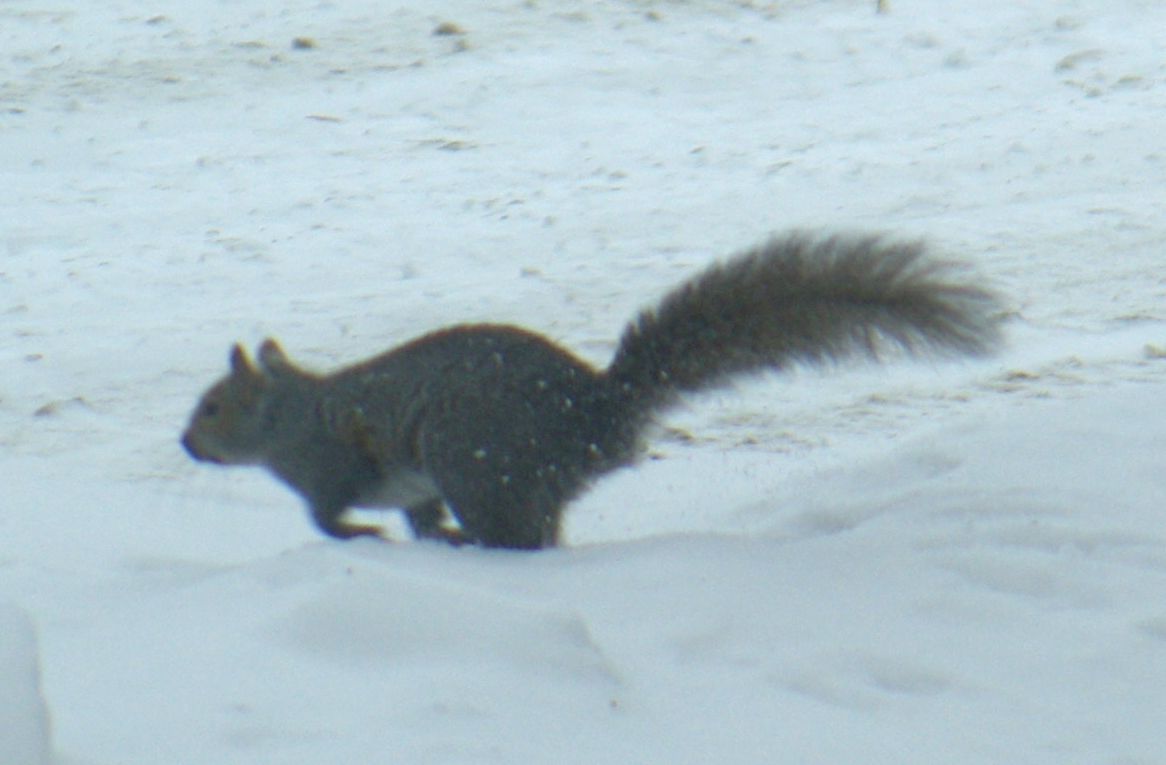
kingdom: Animalia
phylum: Chordata
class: Mammalia
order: Rodentia
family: Sciuridae
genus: Sciurus
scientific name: Sciurus carolinensis
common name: Eastern gray squirrel
